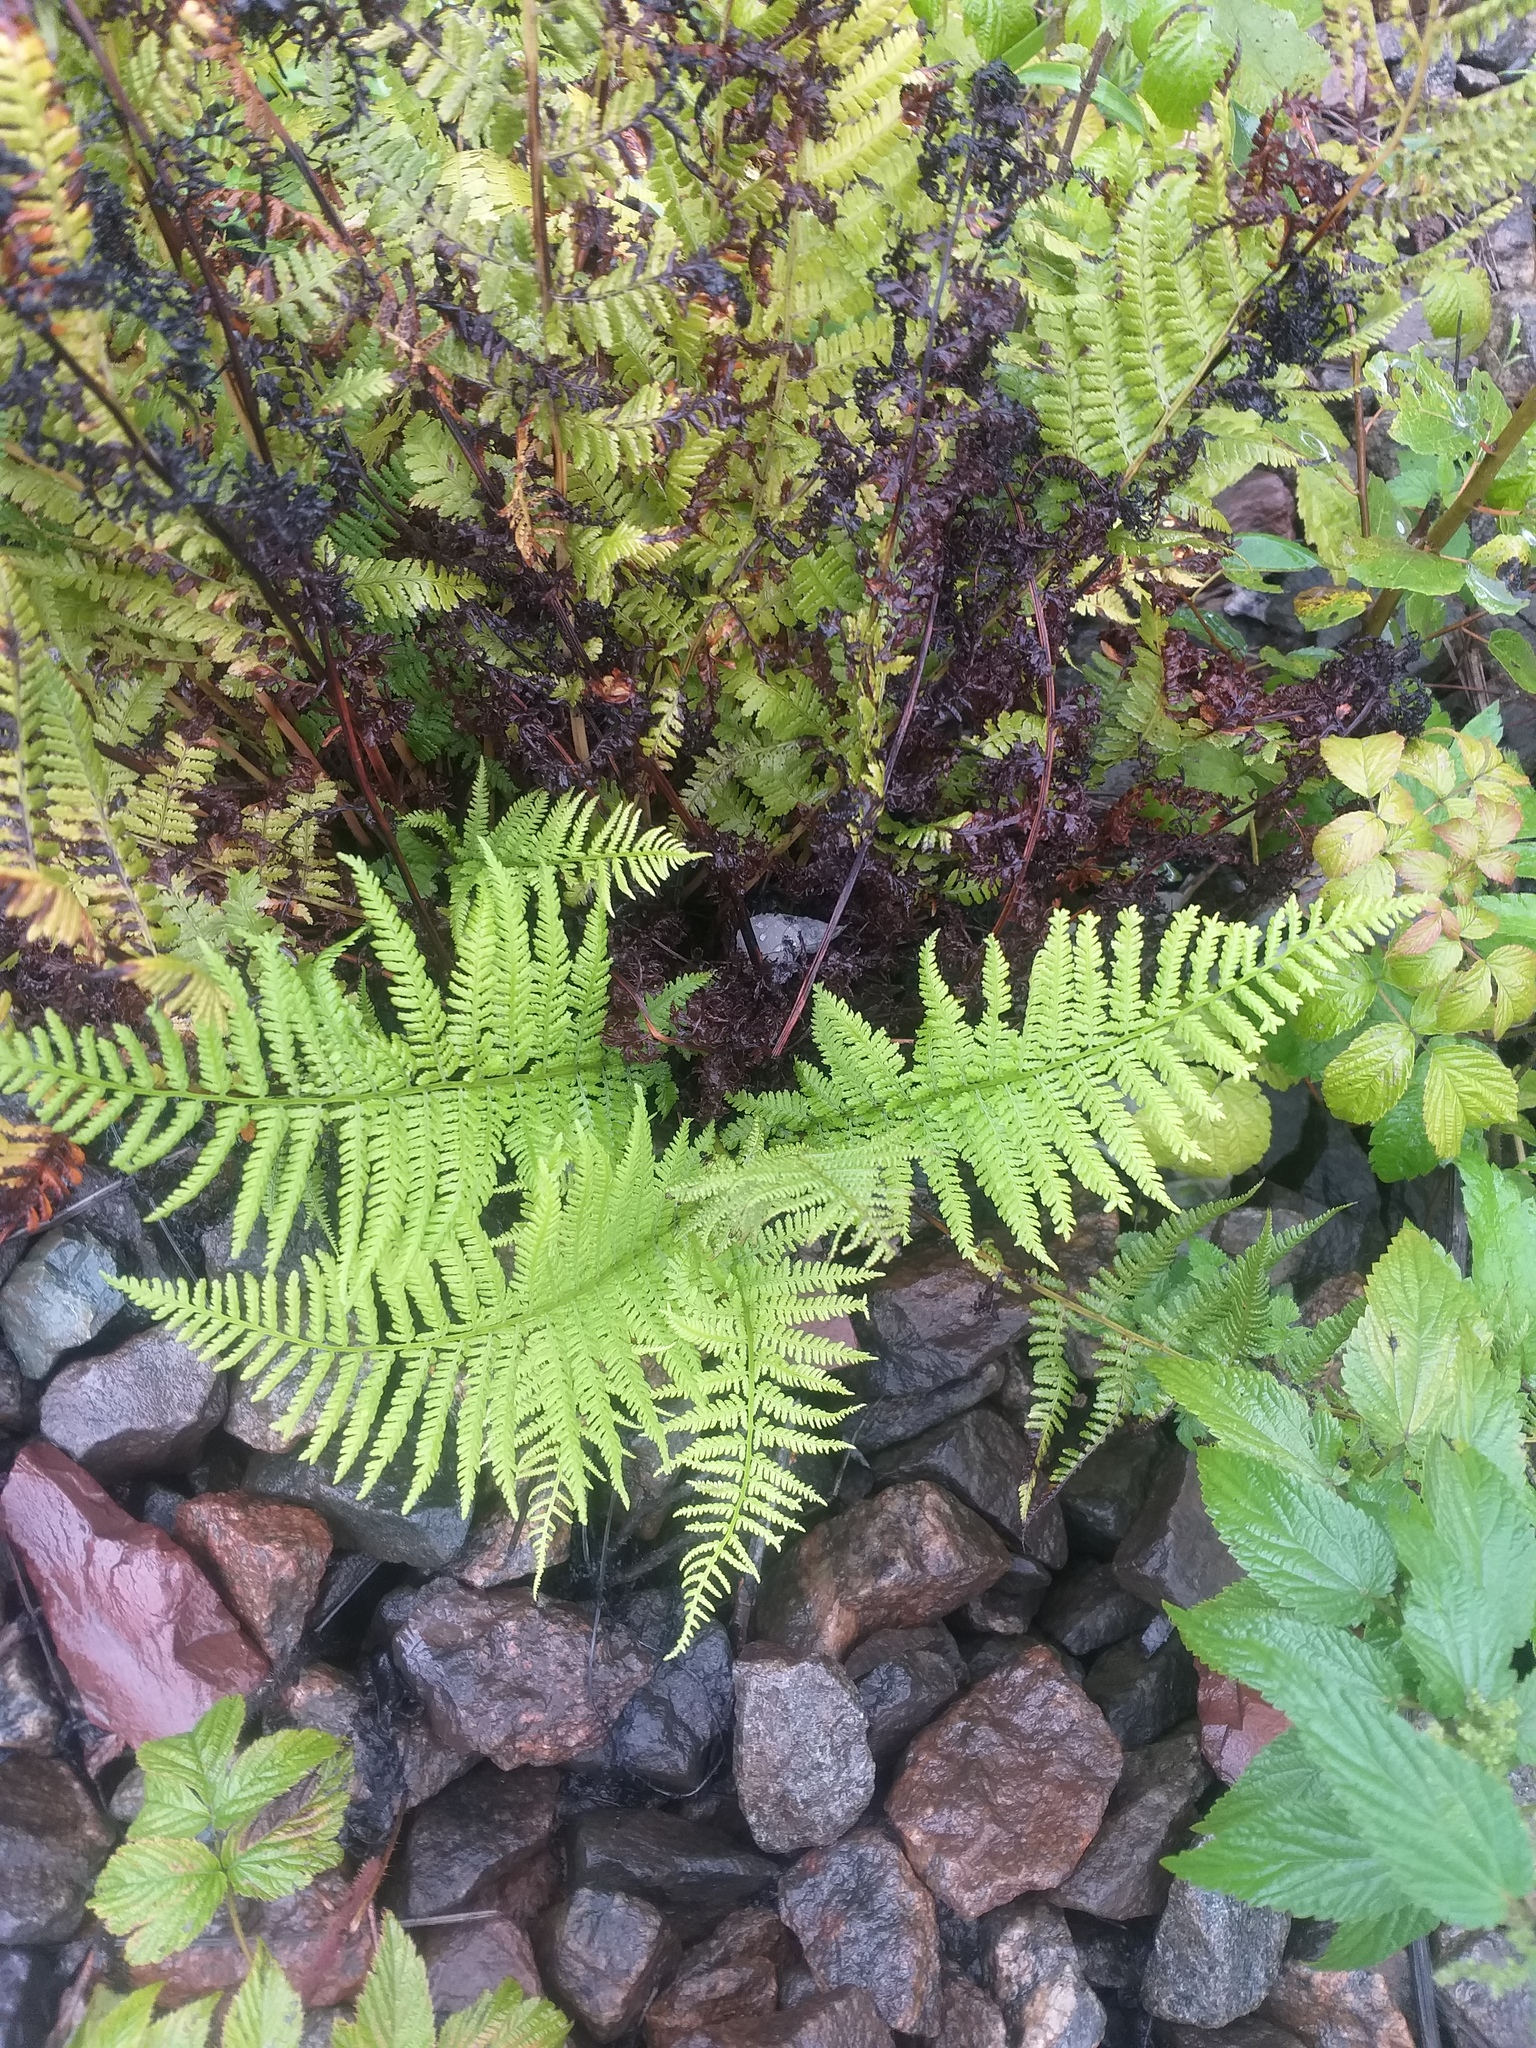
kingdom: Plantae
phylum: Tracheophyta
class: Polypodiopsida
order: Polypodiales
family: Athyriaceae
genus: Athyrium
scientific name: Athyrium filix-femina
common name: Lady fern
